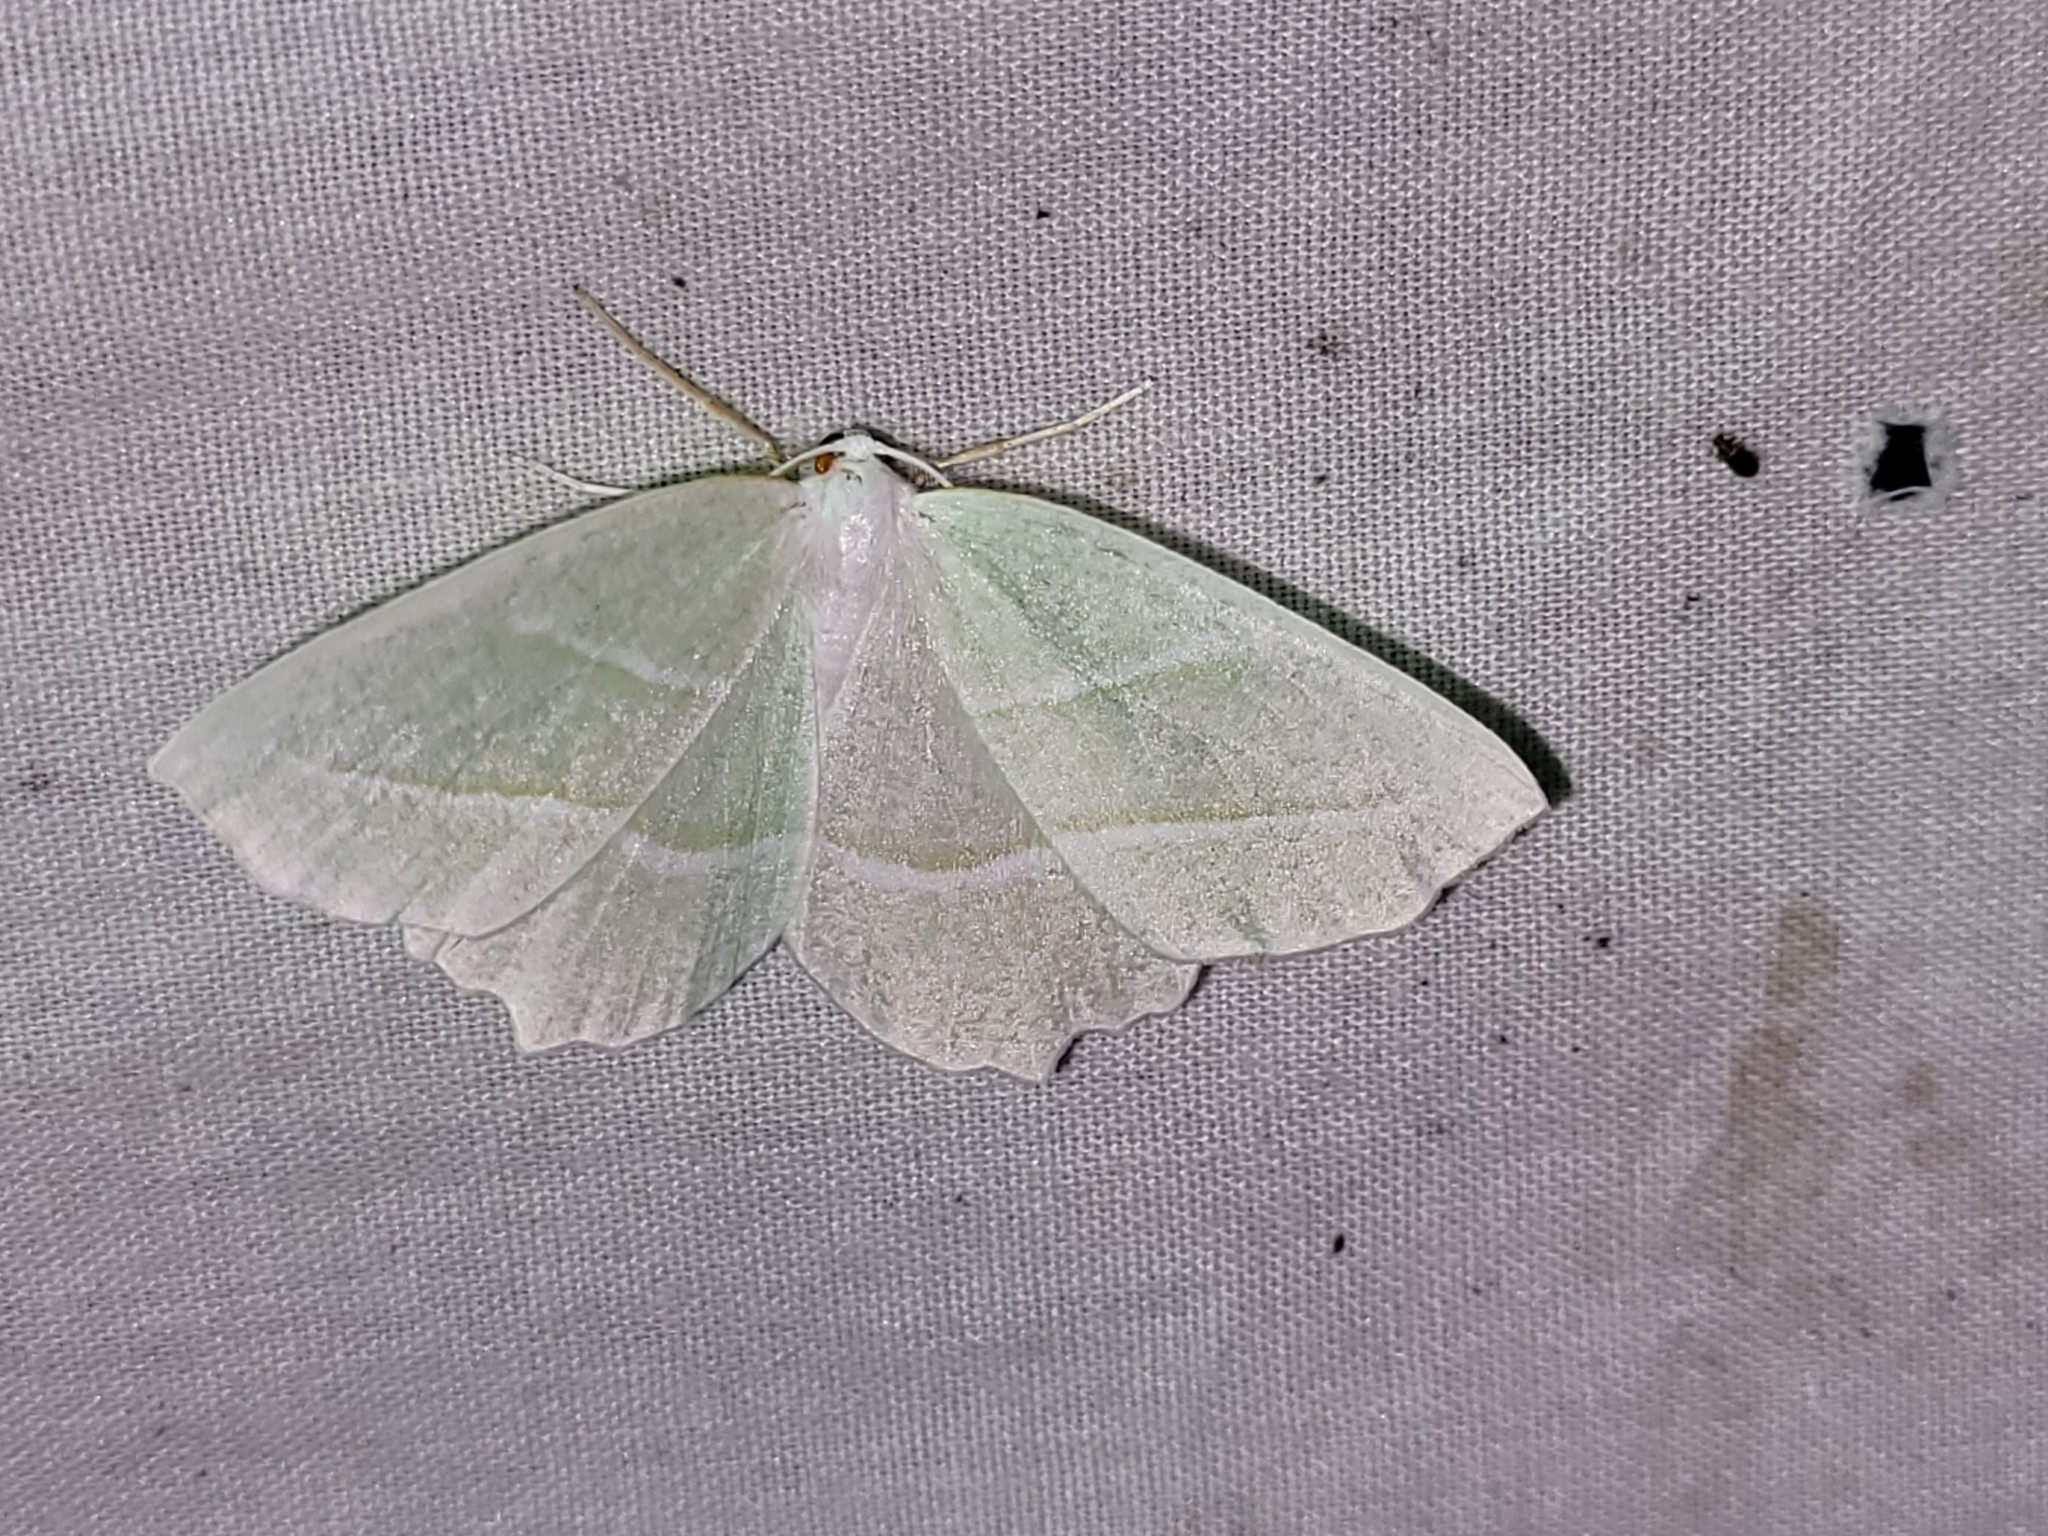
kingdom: Animalia
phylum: Arthropoda
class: Insecta
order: Lepidoptera
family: Geometridae
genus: Campaea
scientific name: Campaea perlata
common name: Fringed looper
